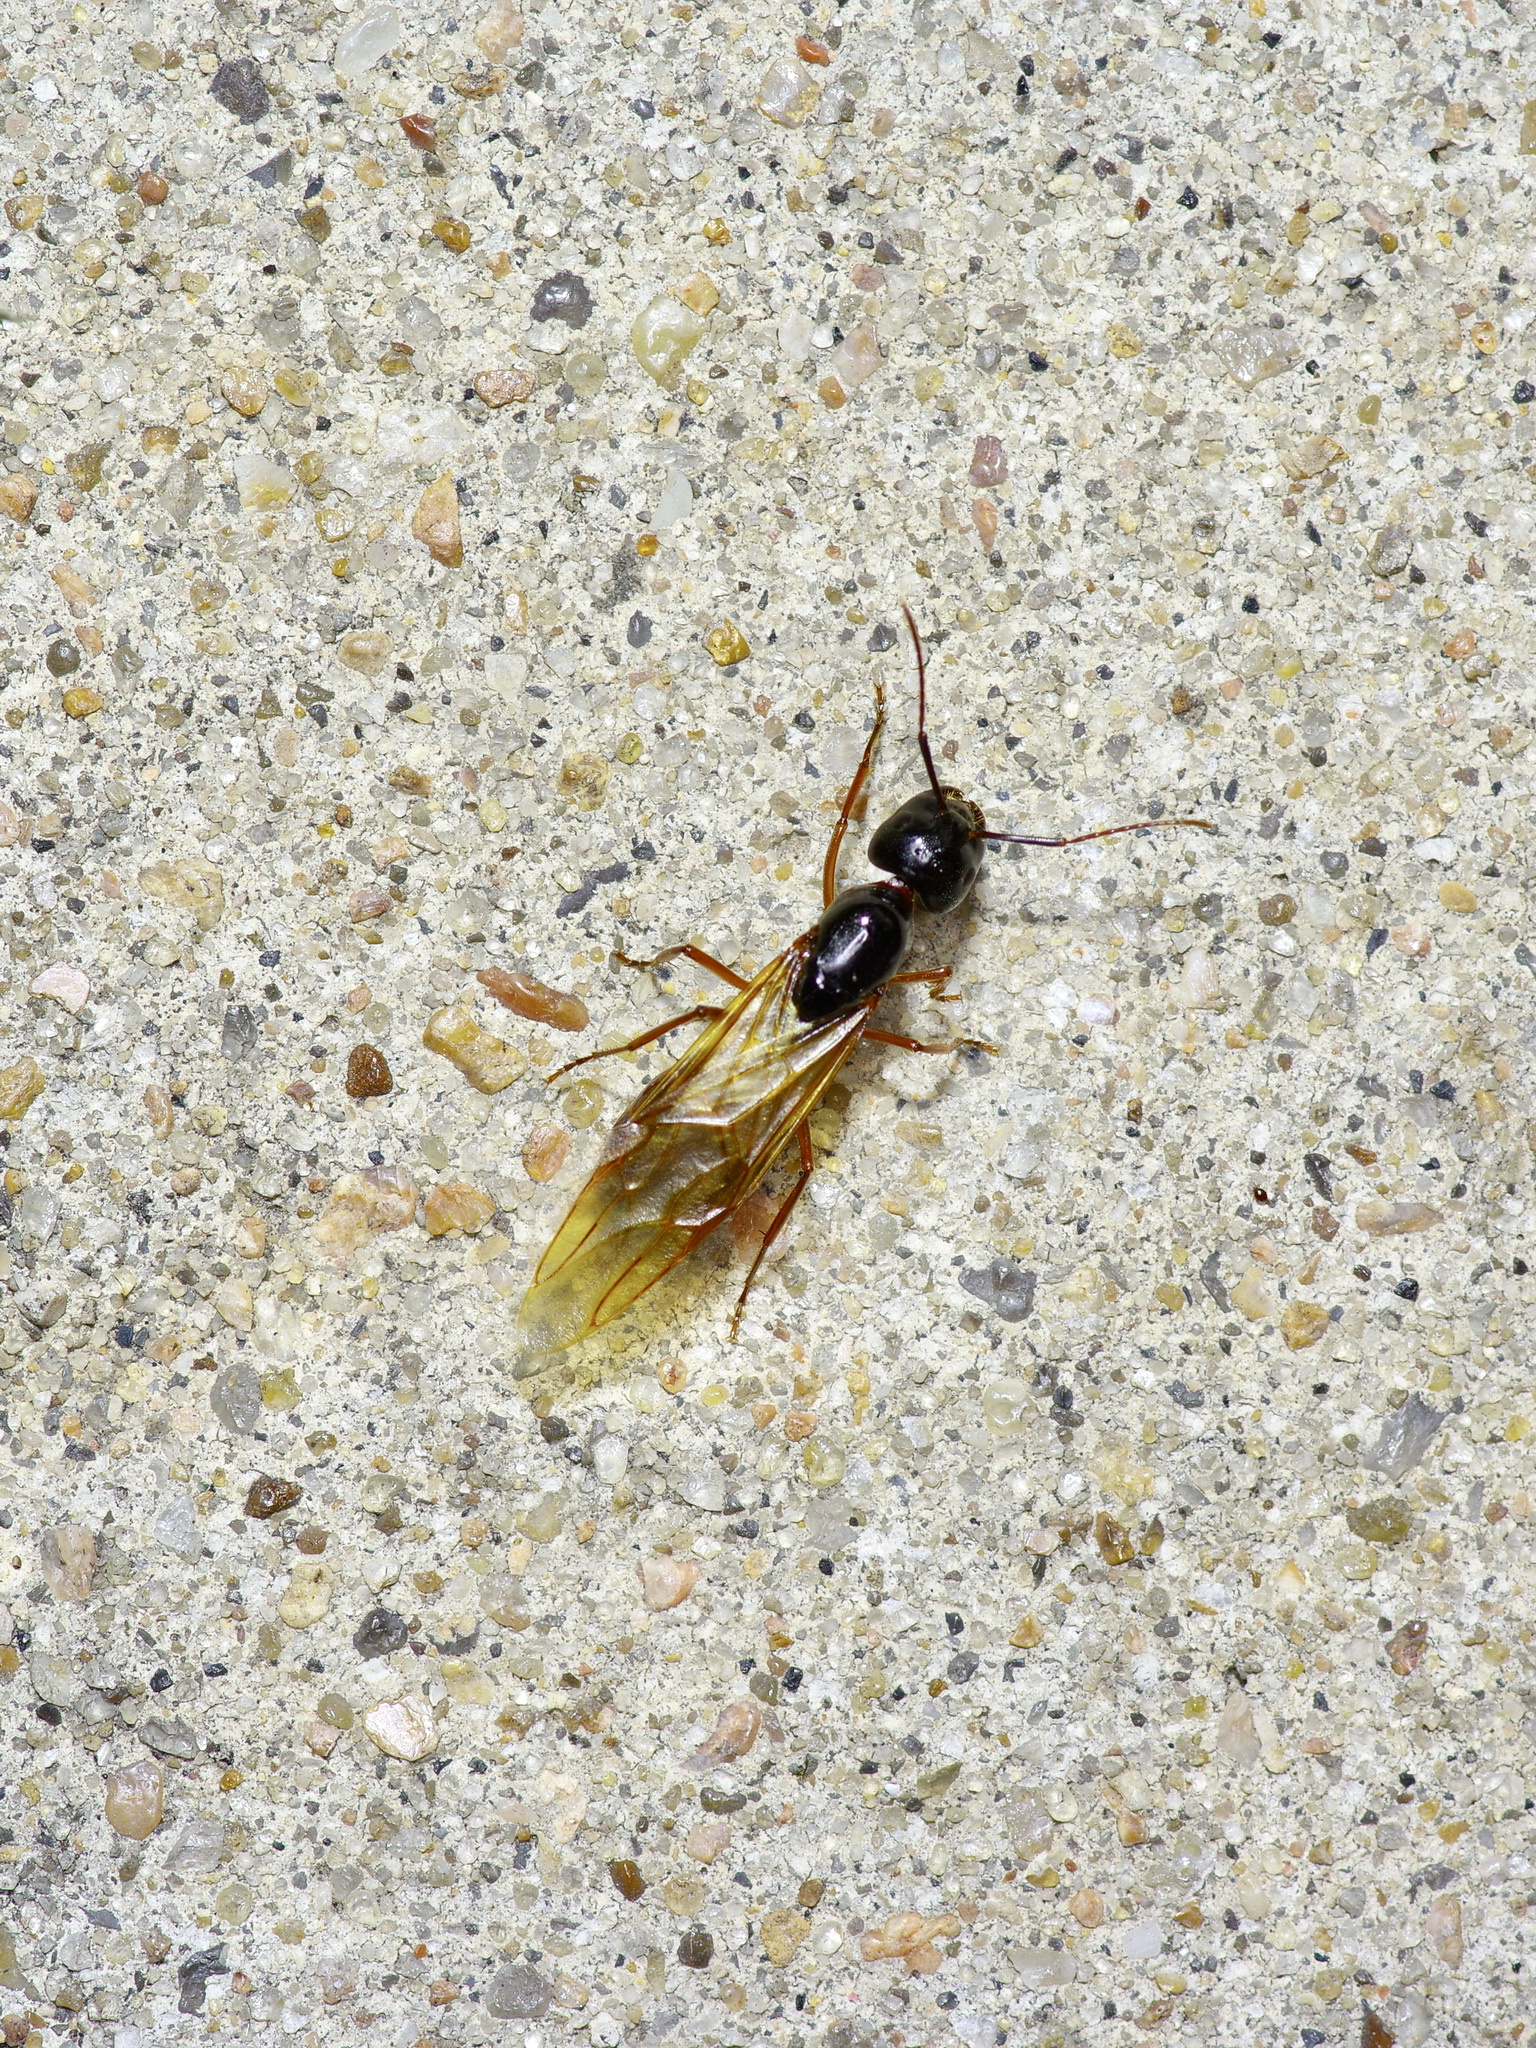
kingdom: Animalia
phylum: Arthropoda
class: Insecta
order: Hymenoptera
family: Formicidae
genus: Camponotus
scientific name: Camponotus sansabeanus
